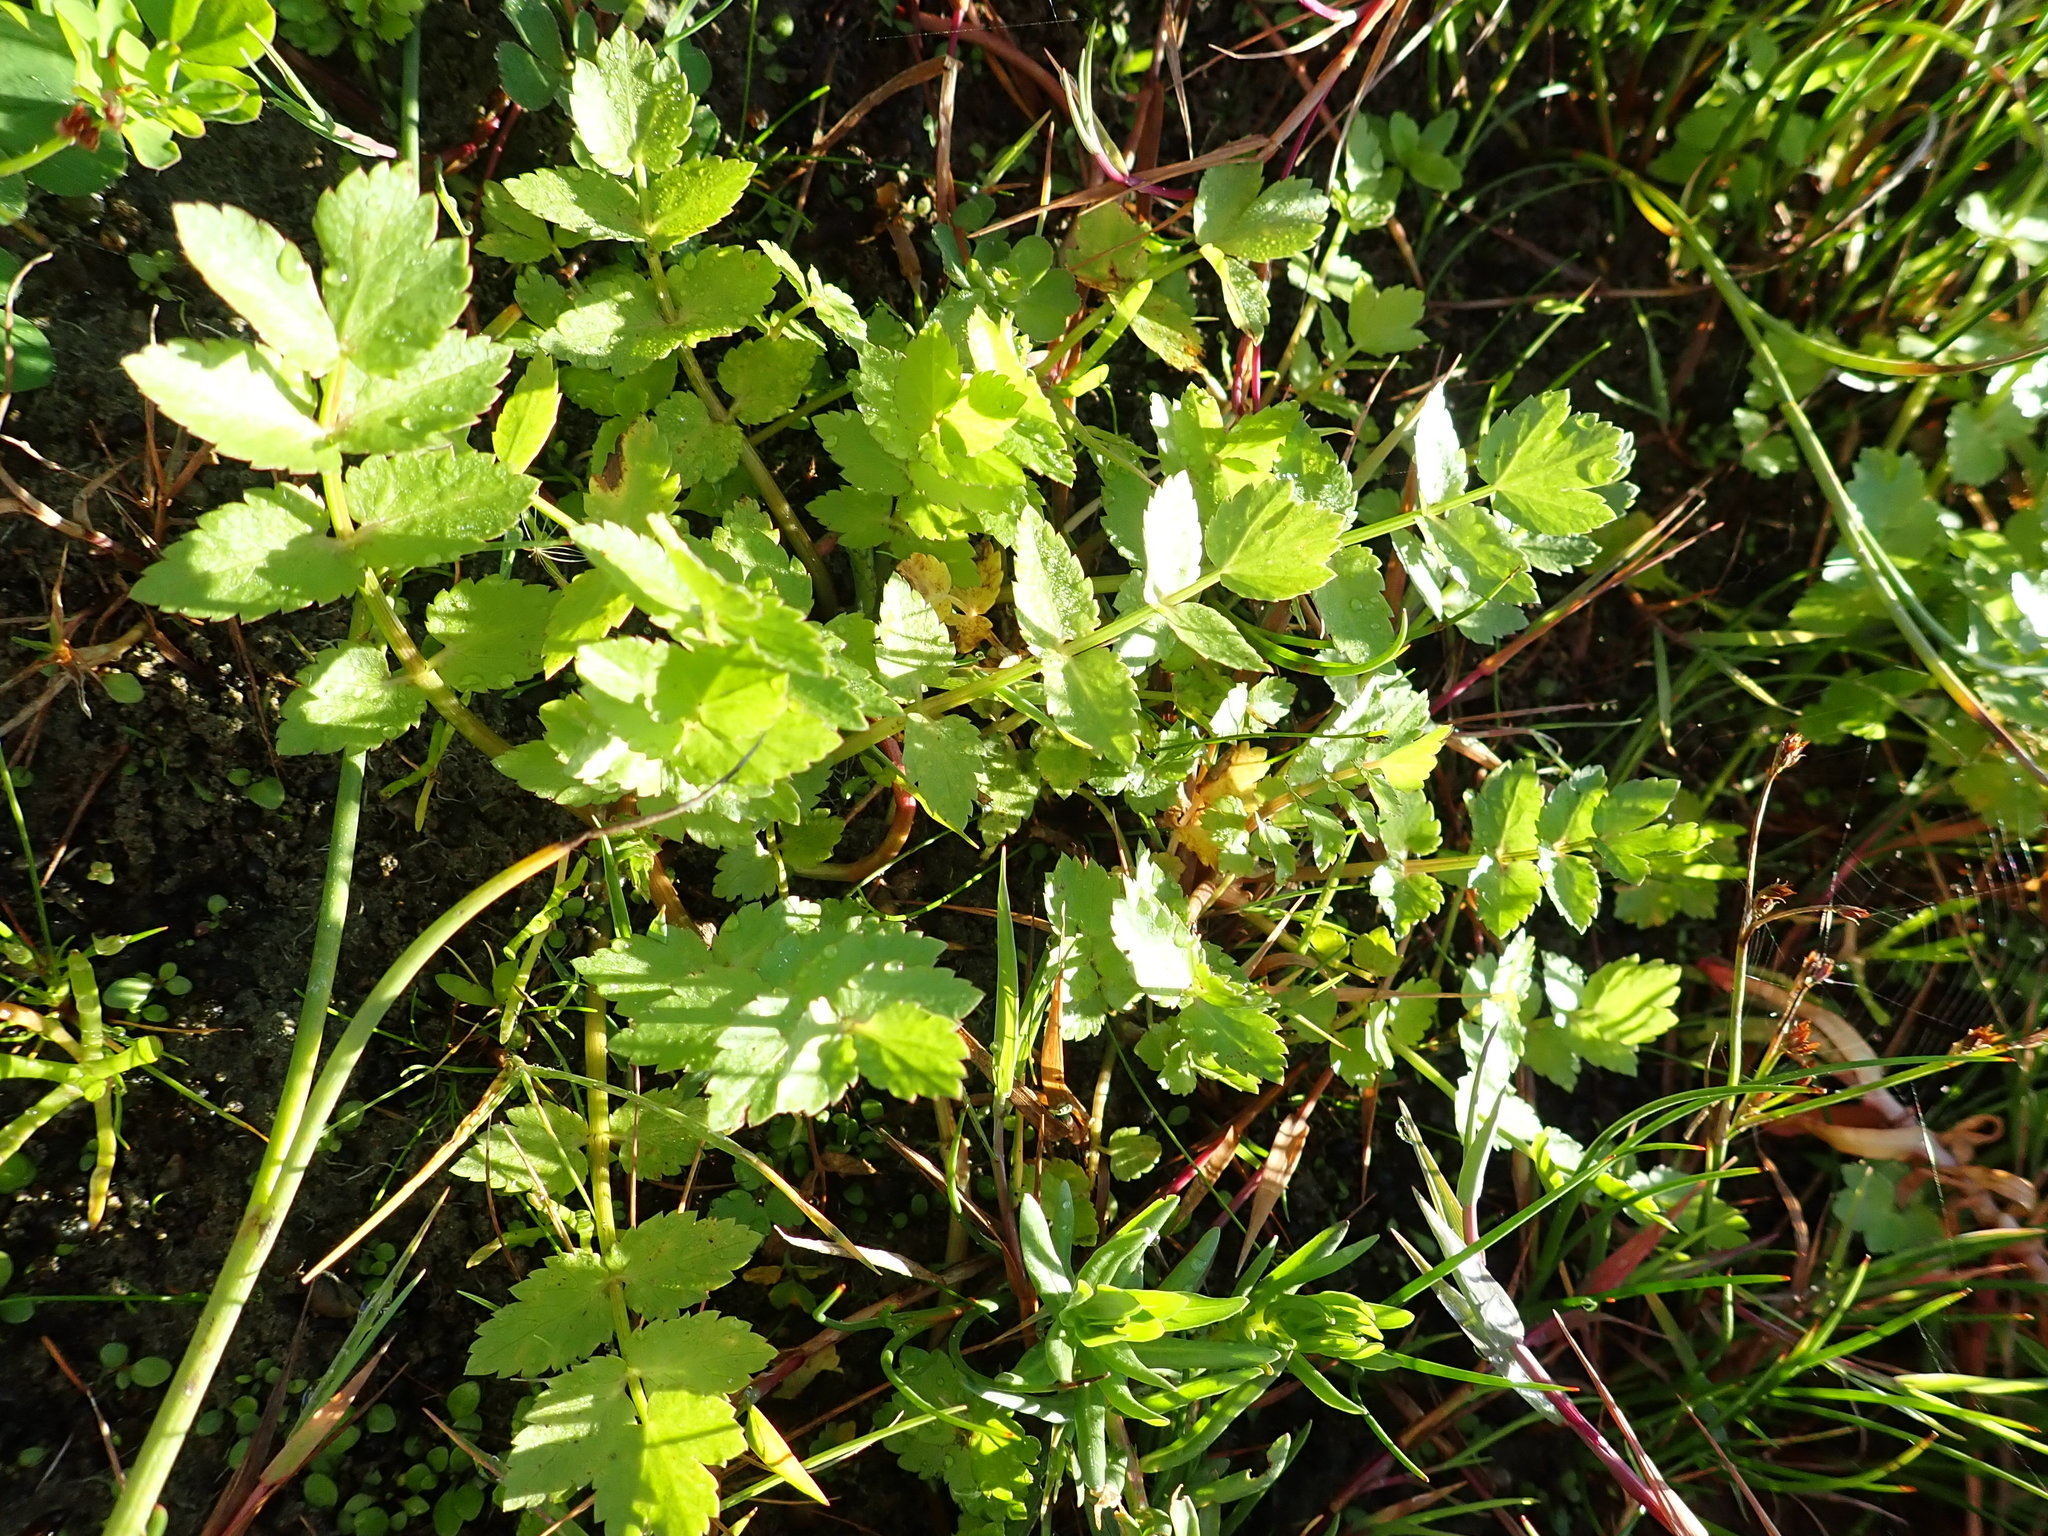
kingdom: Plantae
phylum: Tracheophyta
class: Magnoliopsida
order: Apiales
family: Apiaceae
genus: Helosciadium
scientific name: Helosciadium nodiflorum
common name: Fool's-watercress
